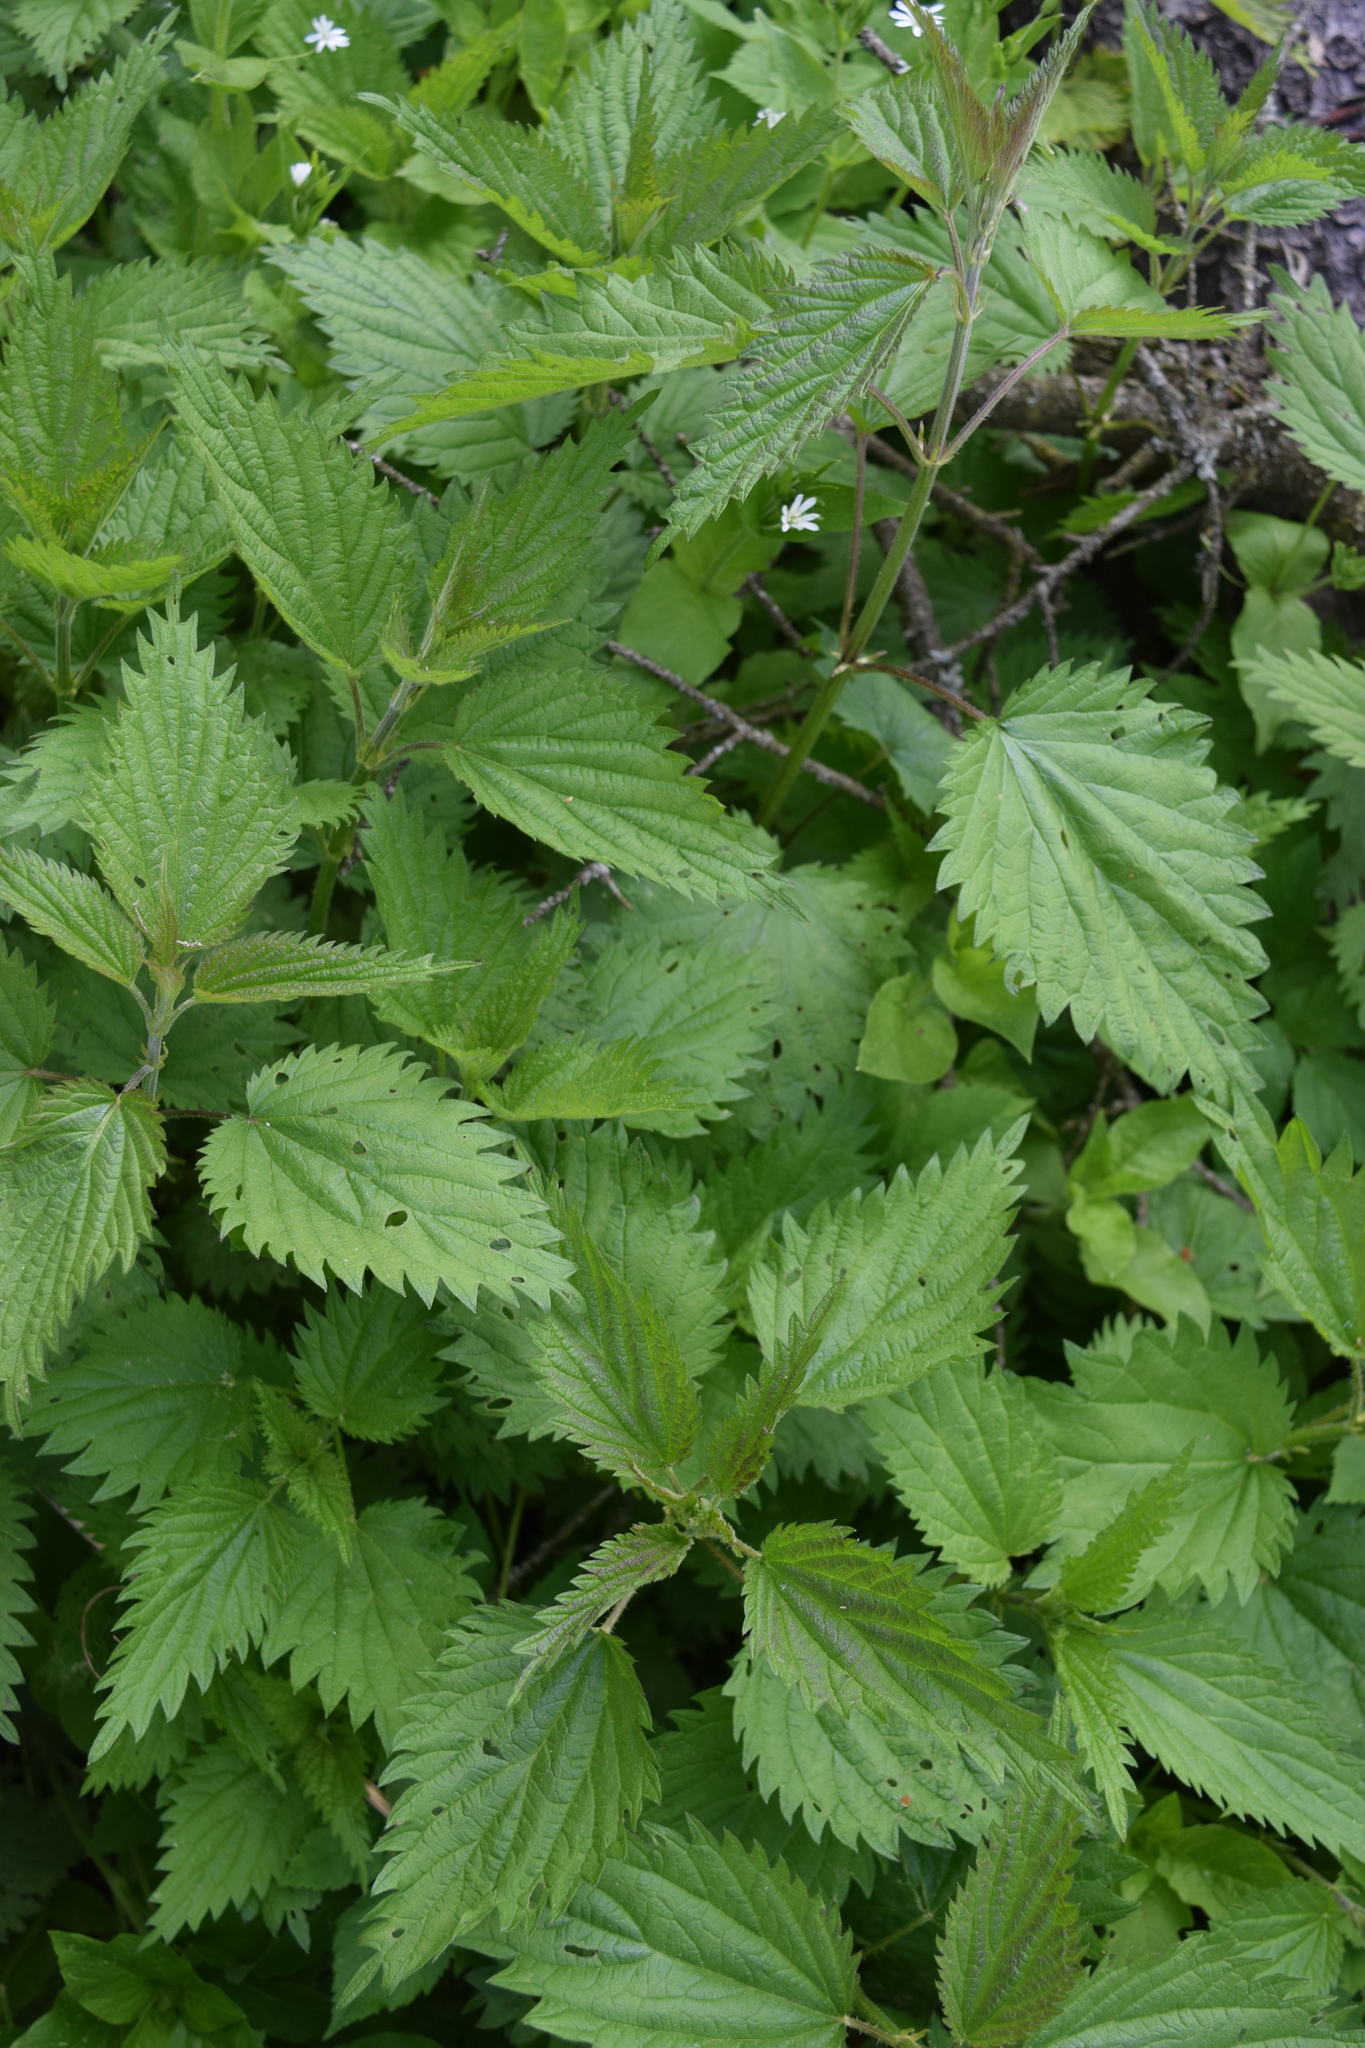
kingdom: Plantae
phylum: Tracheophyta
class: Magnoliopsida
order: Rosales
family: Urticaceae
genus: Urtica
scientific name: Urtica dioica
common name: Common nettle
